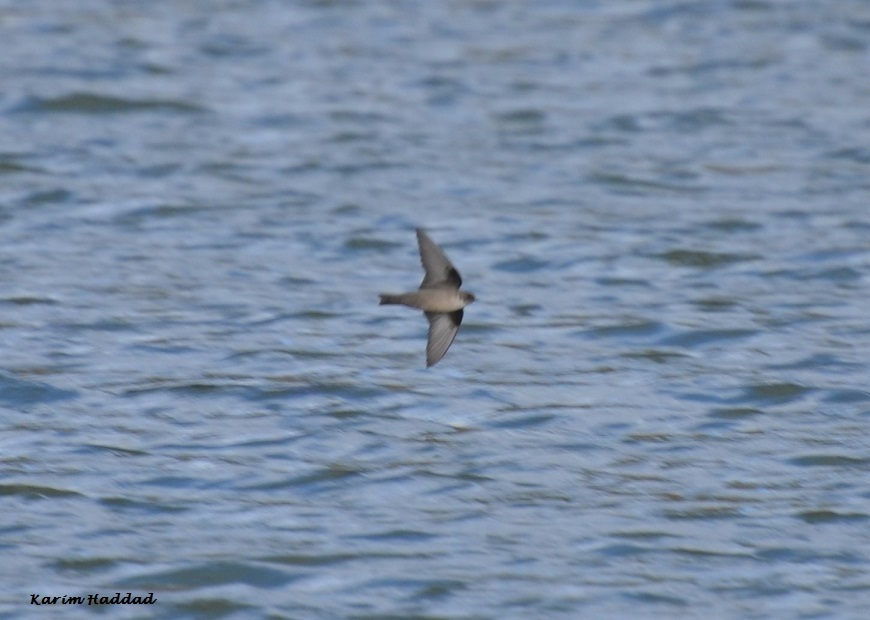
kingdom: Animalia
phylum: Chordata
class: Aves
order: Passeriformes
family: Hirundinidae
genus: Ptyonoprogne
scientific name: Ptyonoprogne rupestris
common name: Eurasian crag martin
